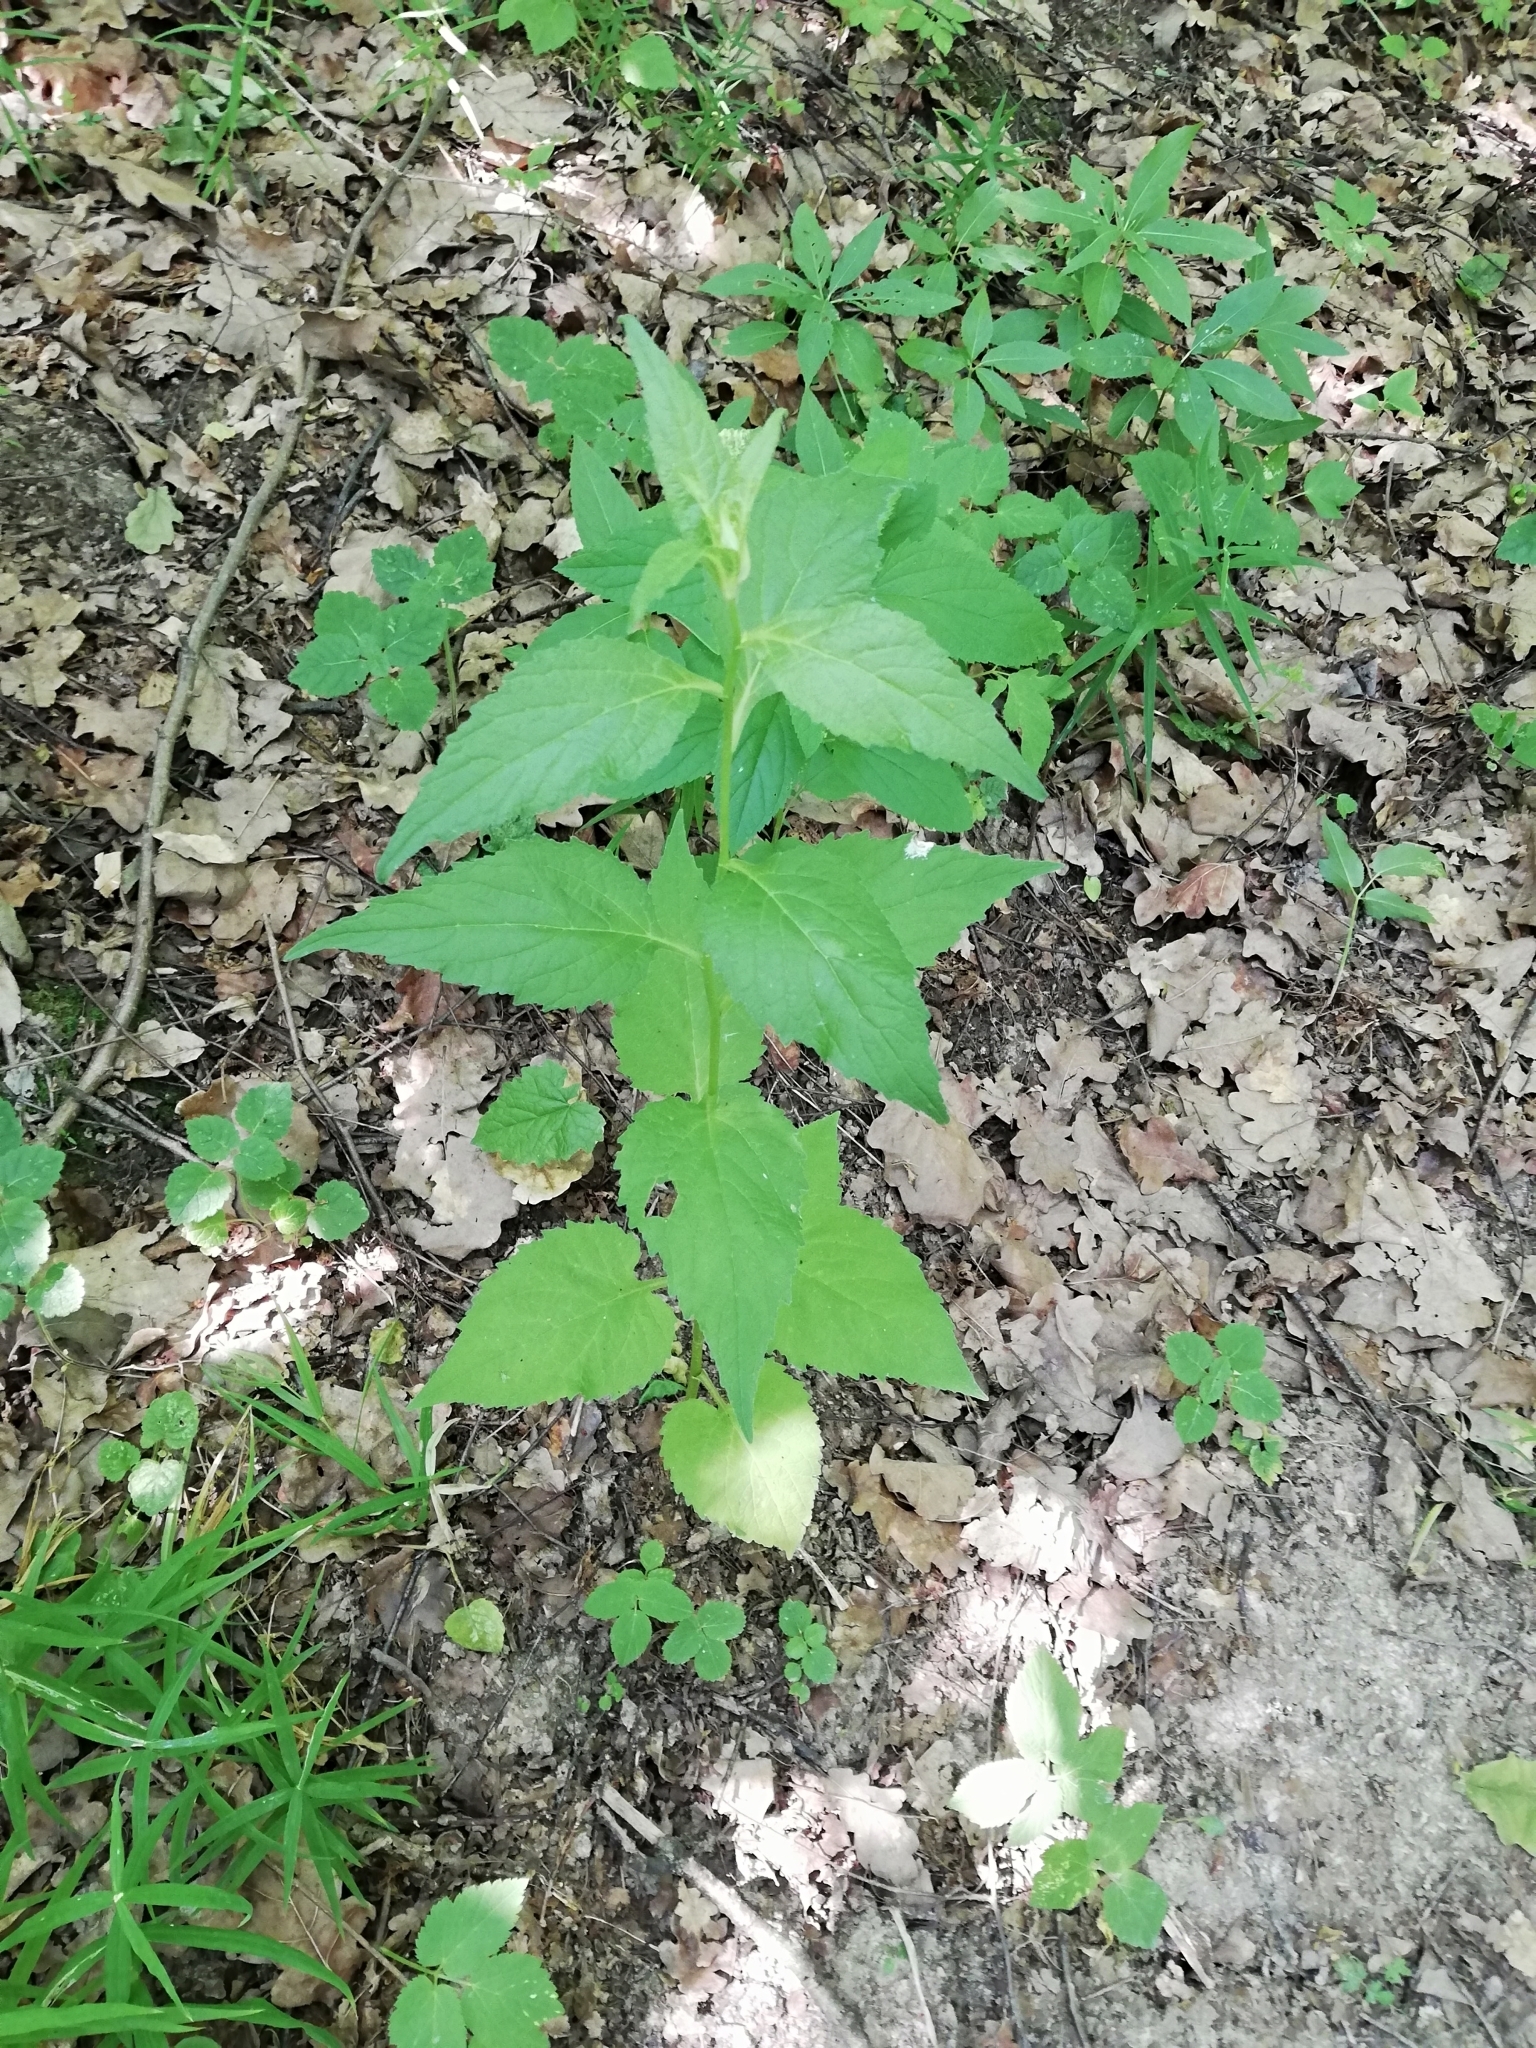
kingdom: Plantae
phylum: Tracheophyta
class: Magnoliopsida
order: Asterales
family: Campanulaceae
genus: Campanula
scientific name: Campanula latifolia
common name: Giant bellflower
